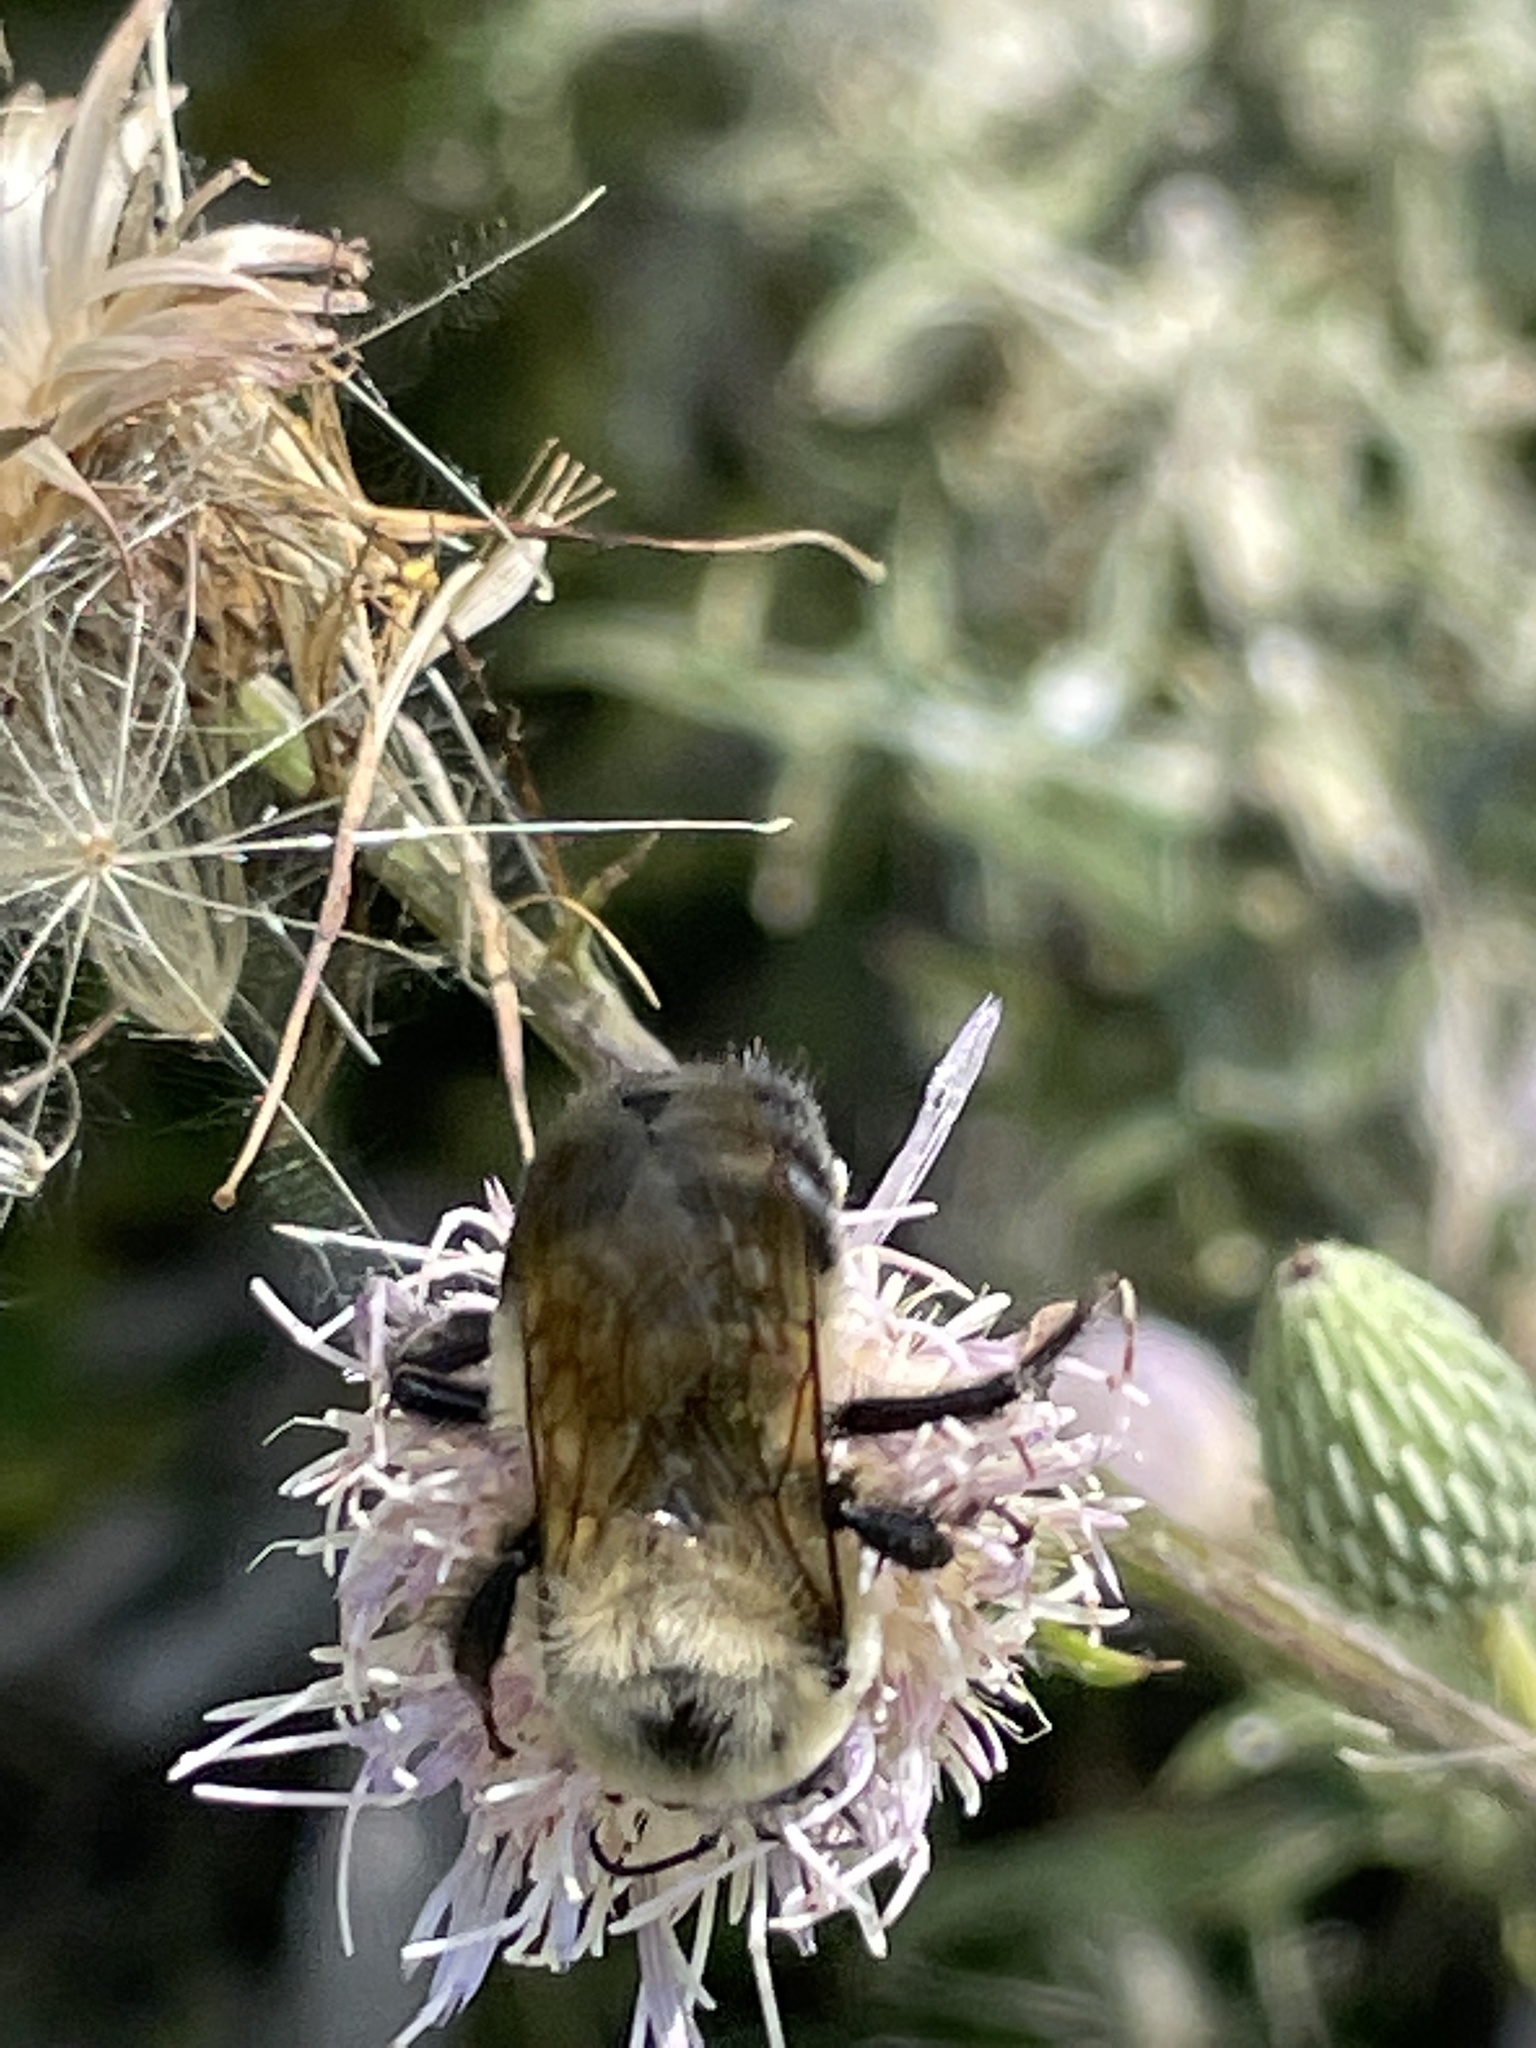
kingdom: Animalia
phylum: Arthropoda
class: Insecta
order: Hymenoptera
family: Apidae
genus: Bombus
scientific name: Bombus griseocollis
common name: Brown-belted bumble bee
